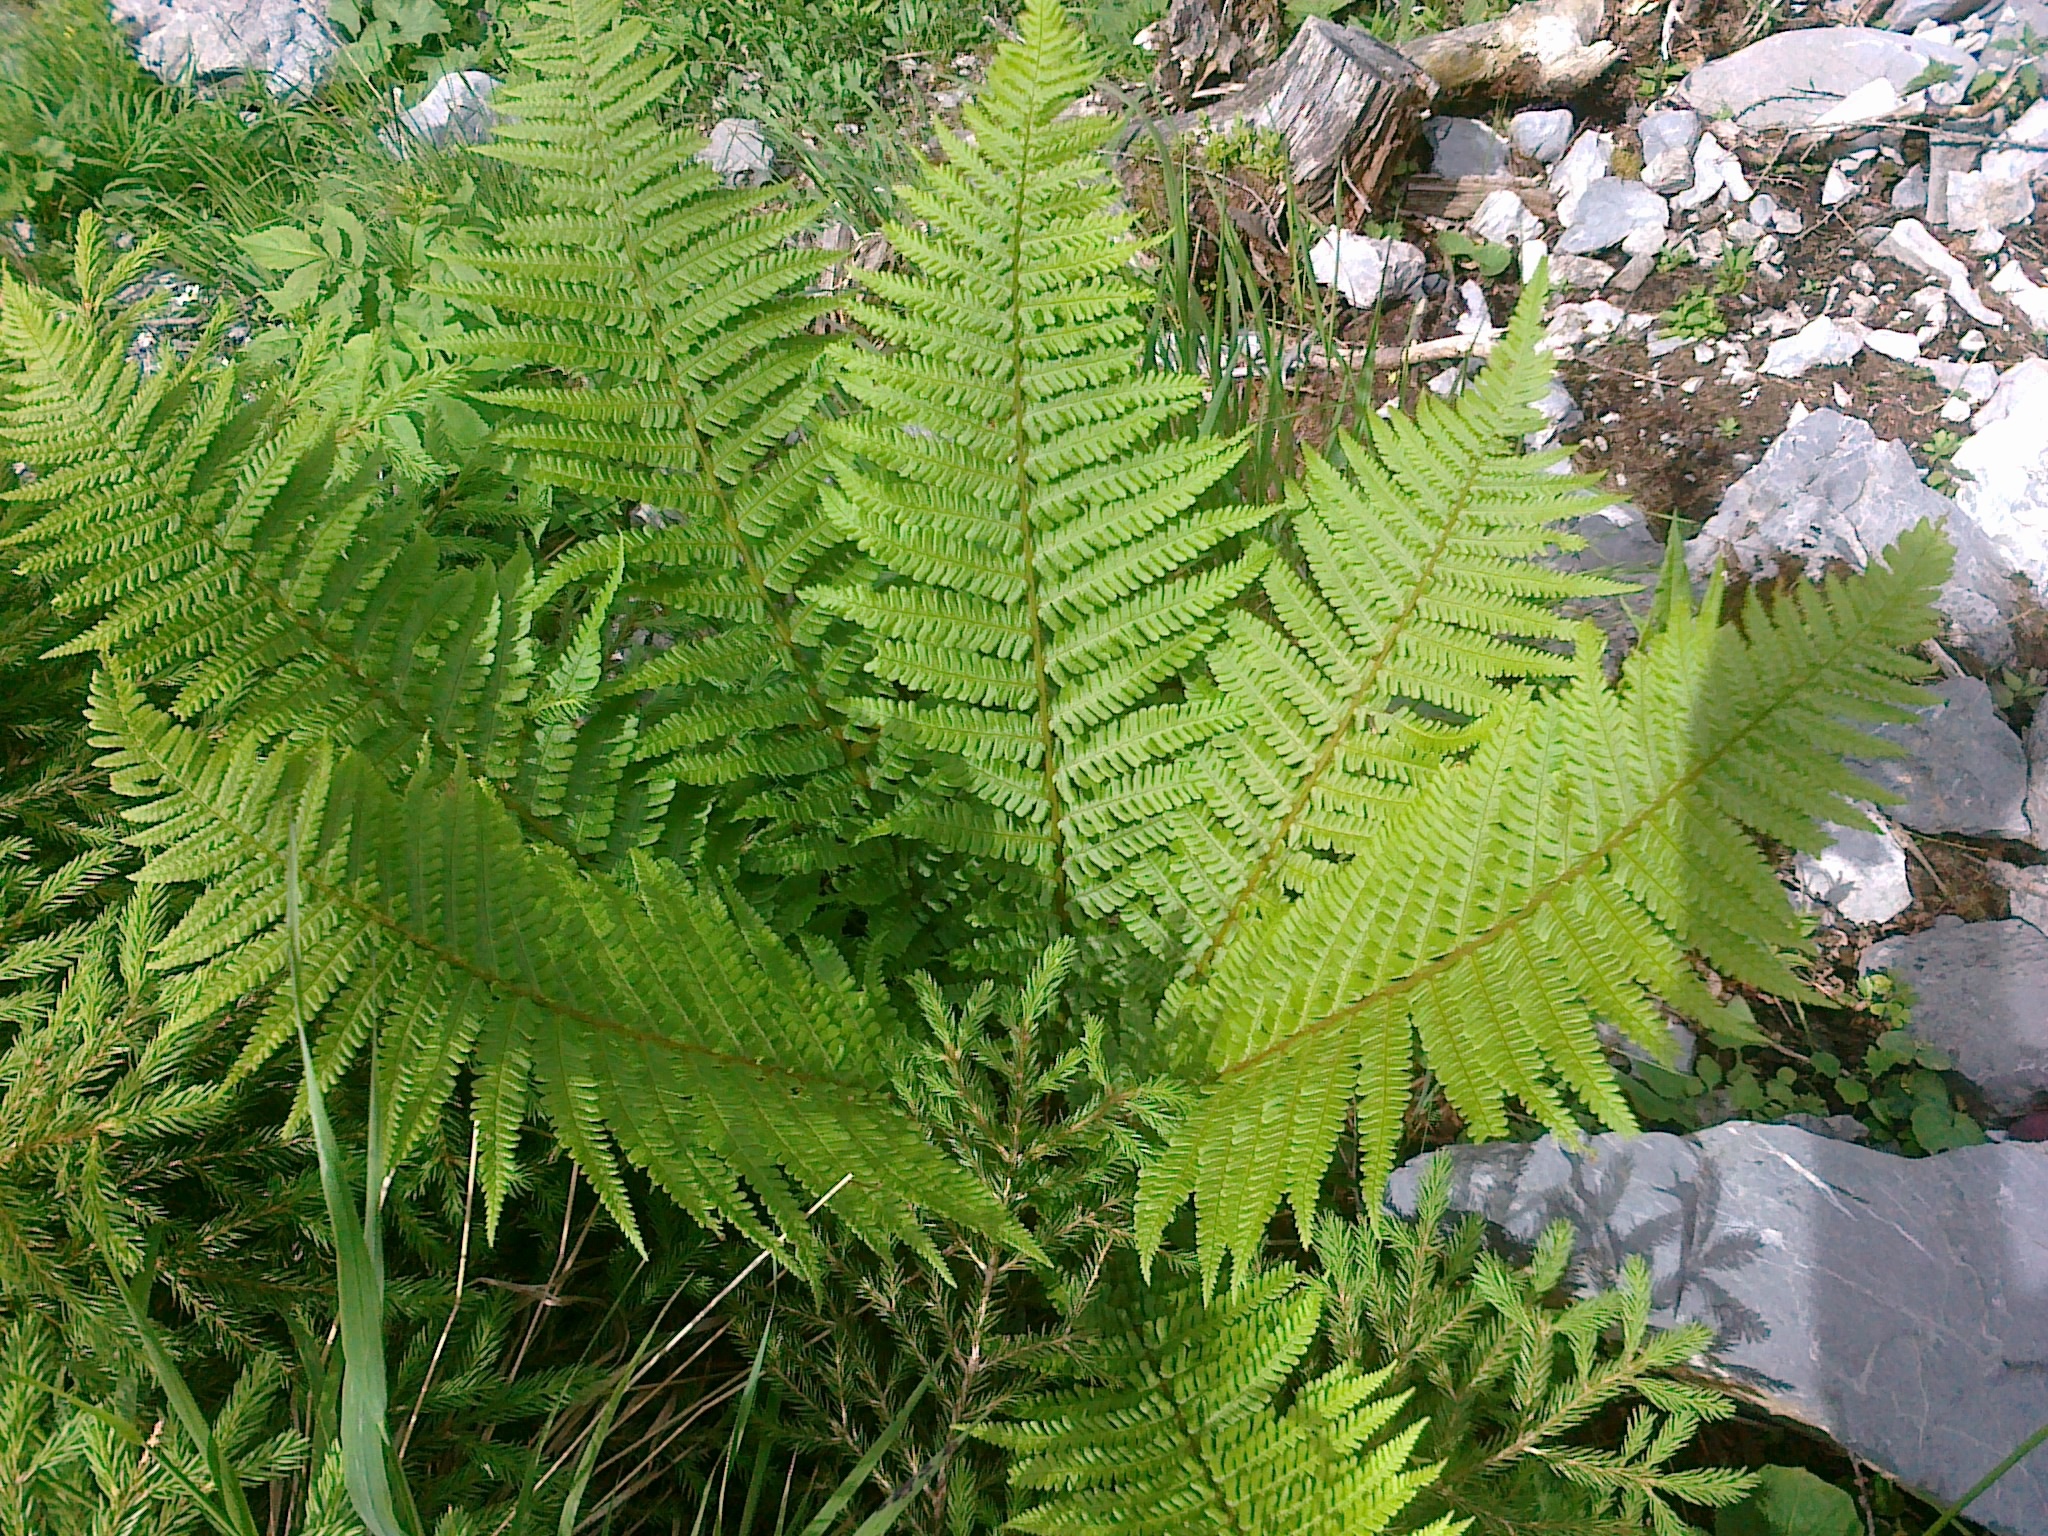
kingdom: Plantae
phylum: Tracheophyta
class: Polypodiopsida
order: Polypodiales
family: Dryopteridaceae
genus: Dryopteris
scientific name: Dryopteris filix-mas
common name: Male fern
